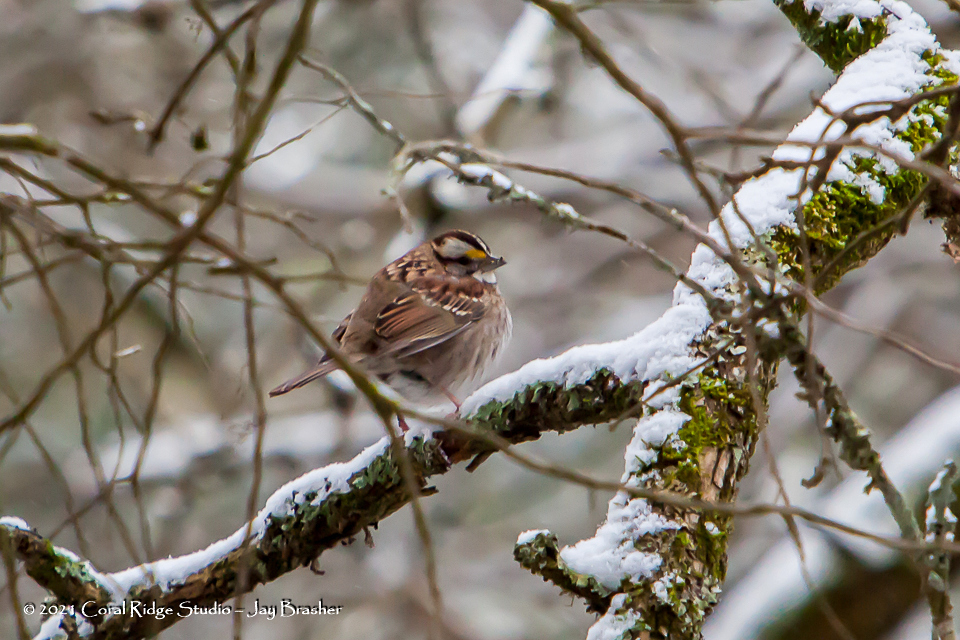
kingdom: Animalia
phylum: Chordata
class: Aves
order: Passeriformes
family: Passerellidae
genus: Zonotrichia
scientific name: Zonotrichia albicollis
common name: White-throated sparrow
